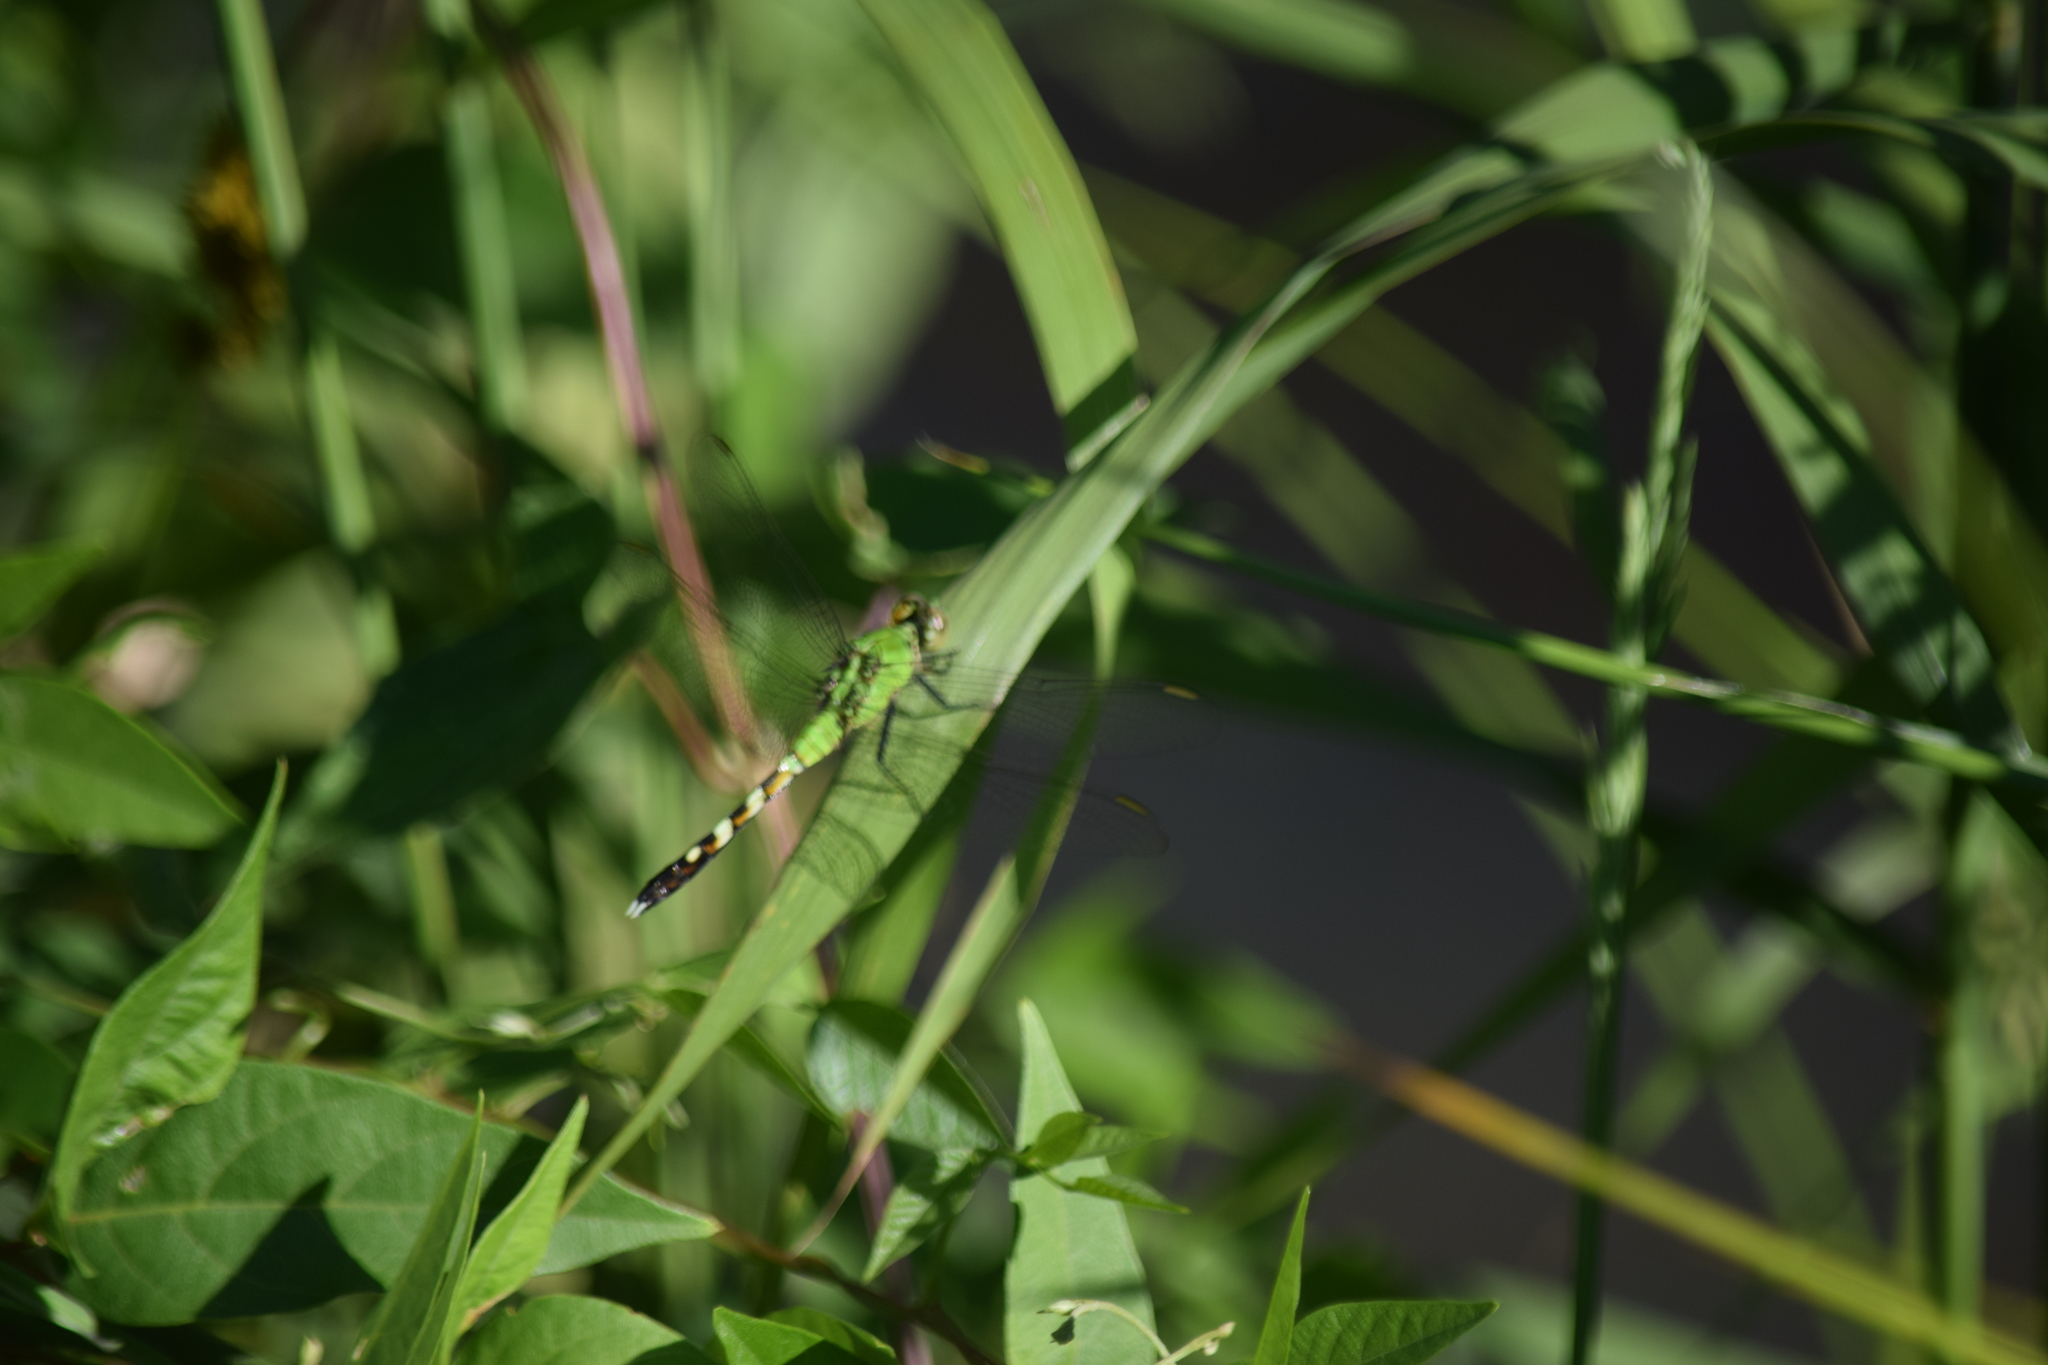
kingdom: Animalia
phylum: Arthropoda
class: Insecta
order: Odonata
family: Libellulidae
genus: Erythemis
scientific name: Erythemis simplicicollis
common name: Eastern pondhawk
